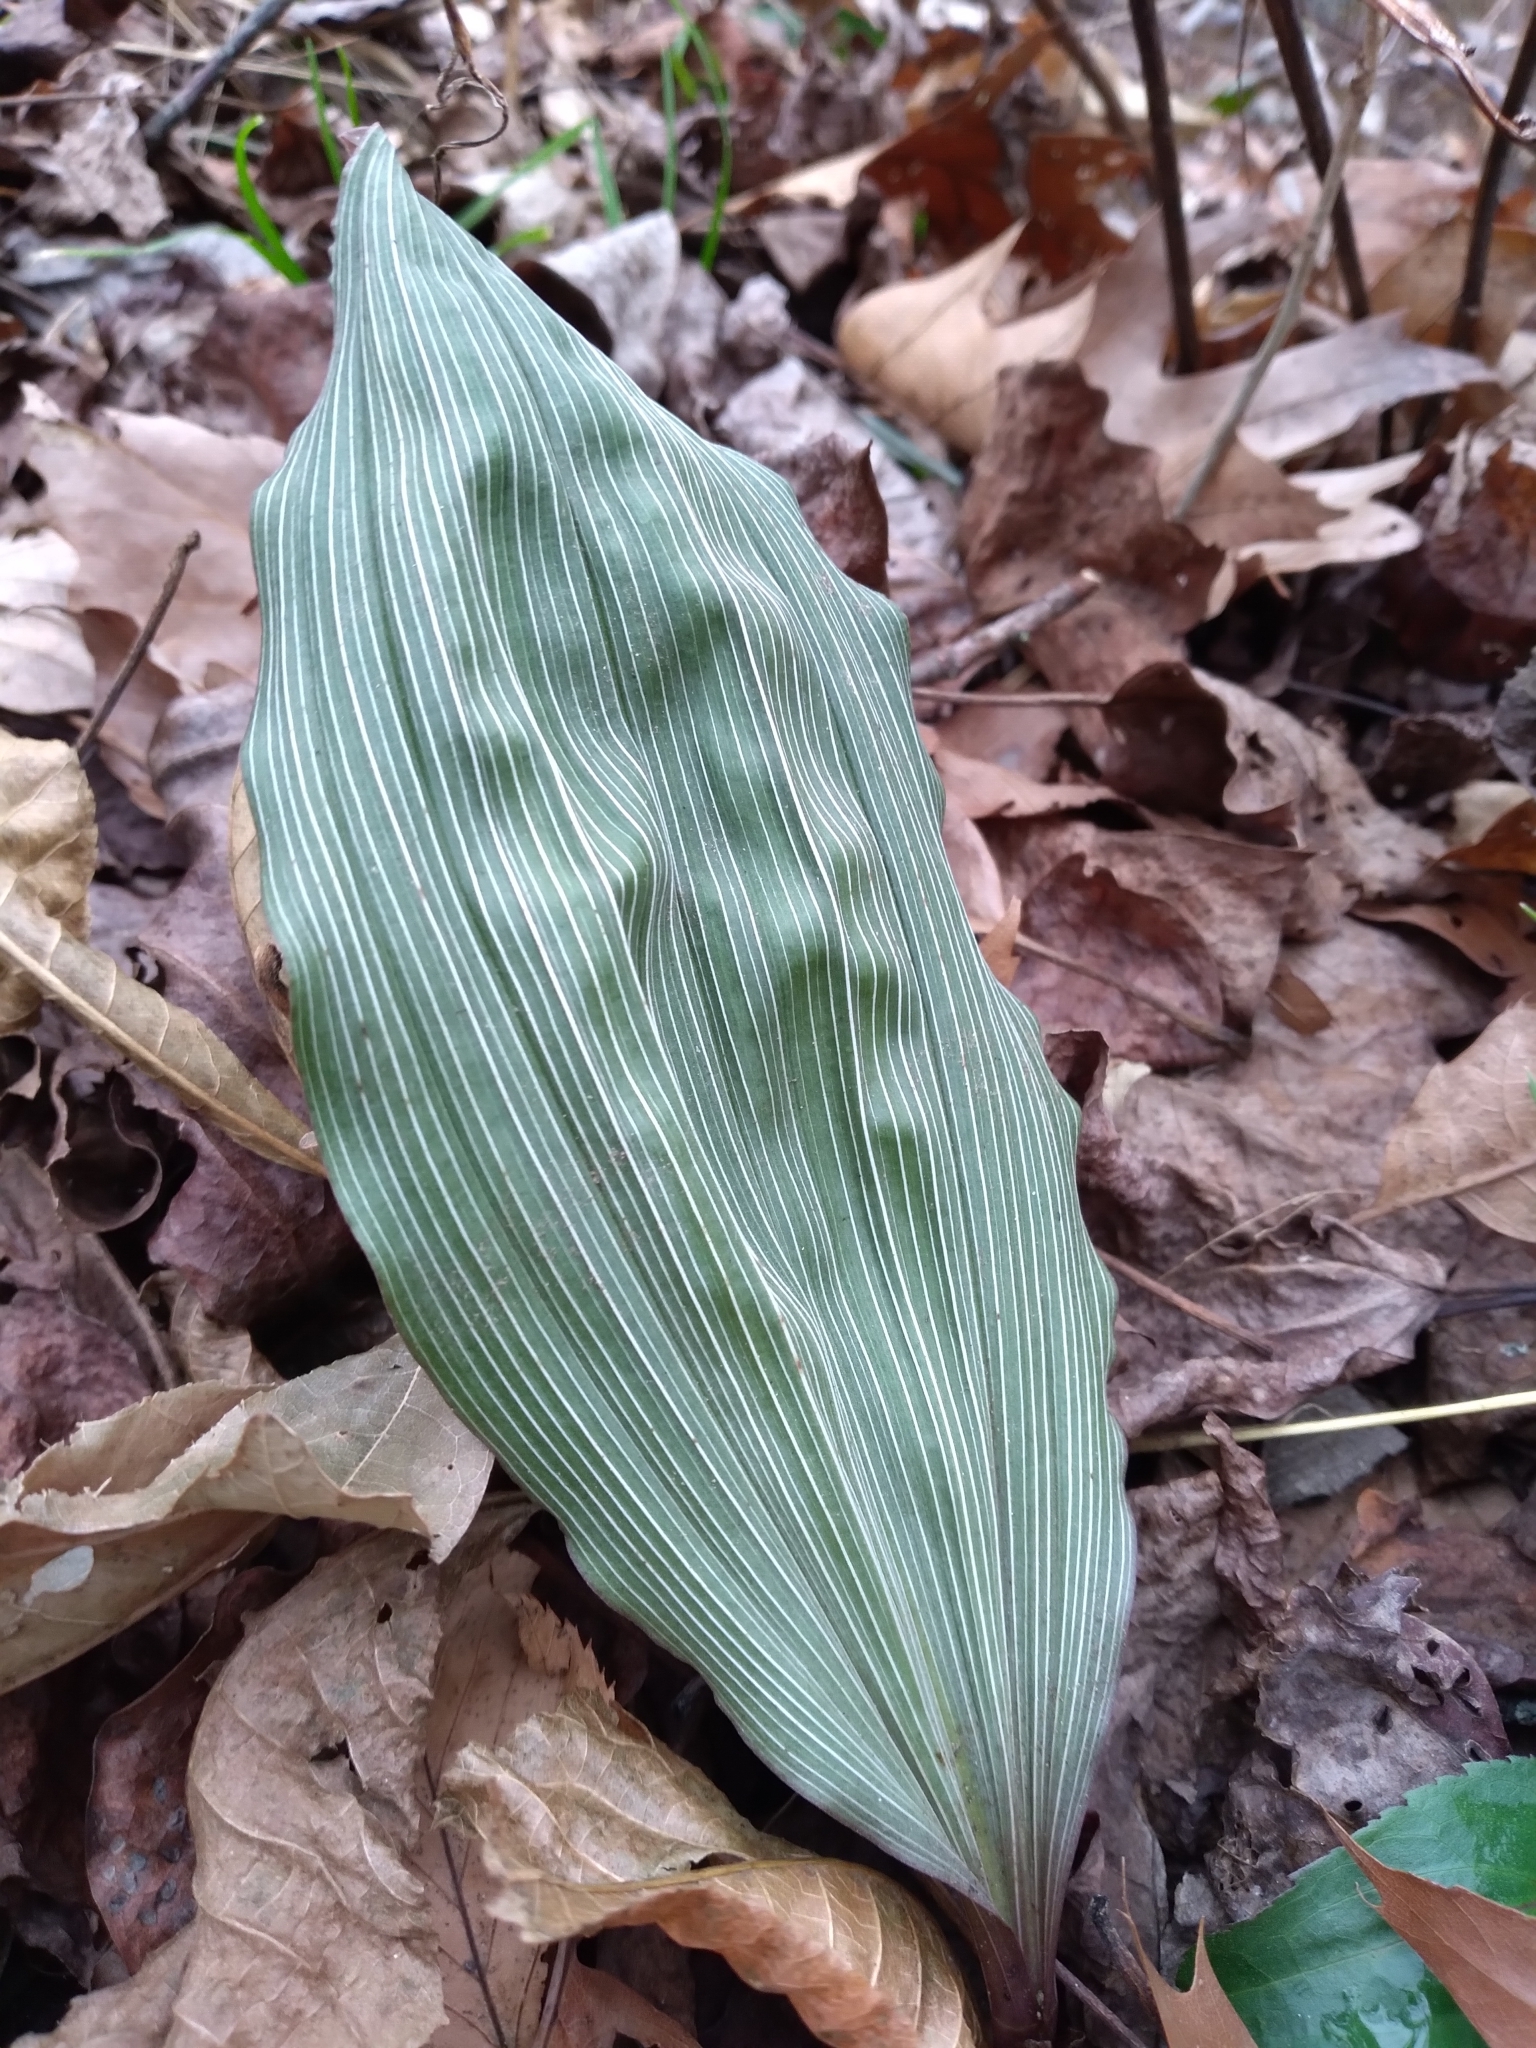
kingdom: Plantae
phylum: Tracheophyta
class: Liliopsida
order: Asparagales
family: Orchidaceae
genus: Aplectrum
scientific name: Aplectrum hyemale
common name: Adam-and-eve
